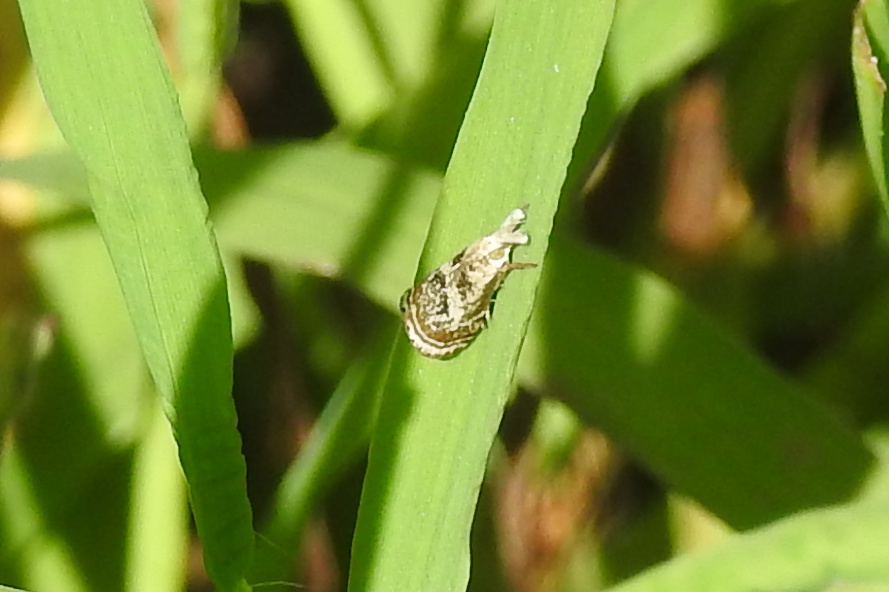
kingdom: Animalia
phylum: Arthropoda
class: Insecta
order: Lepidoptera
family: Crambidae
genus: Microcrambus
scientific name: Microcrambus elegans
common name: Elegant grass-veneer
